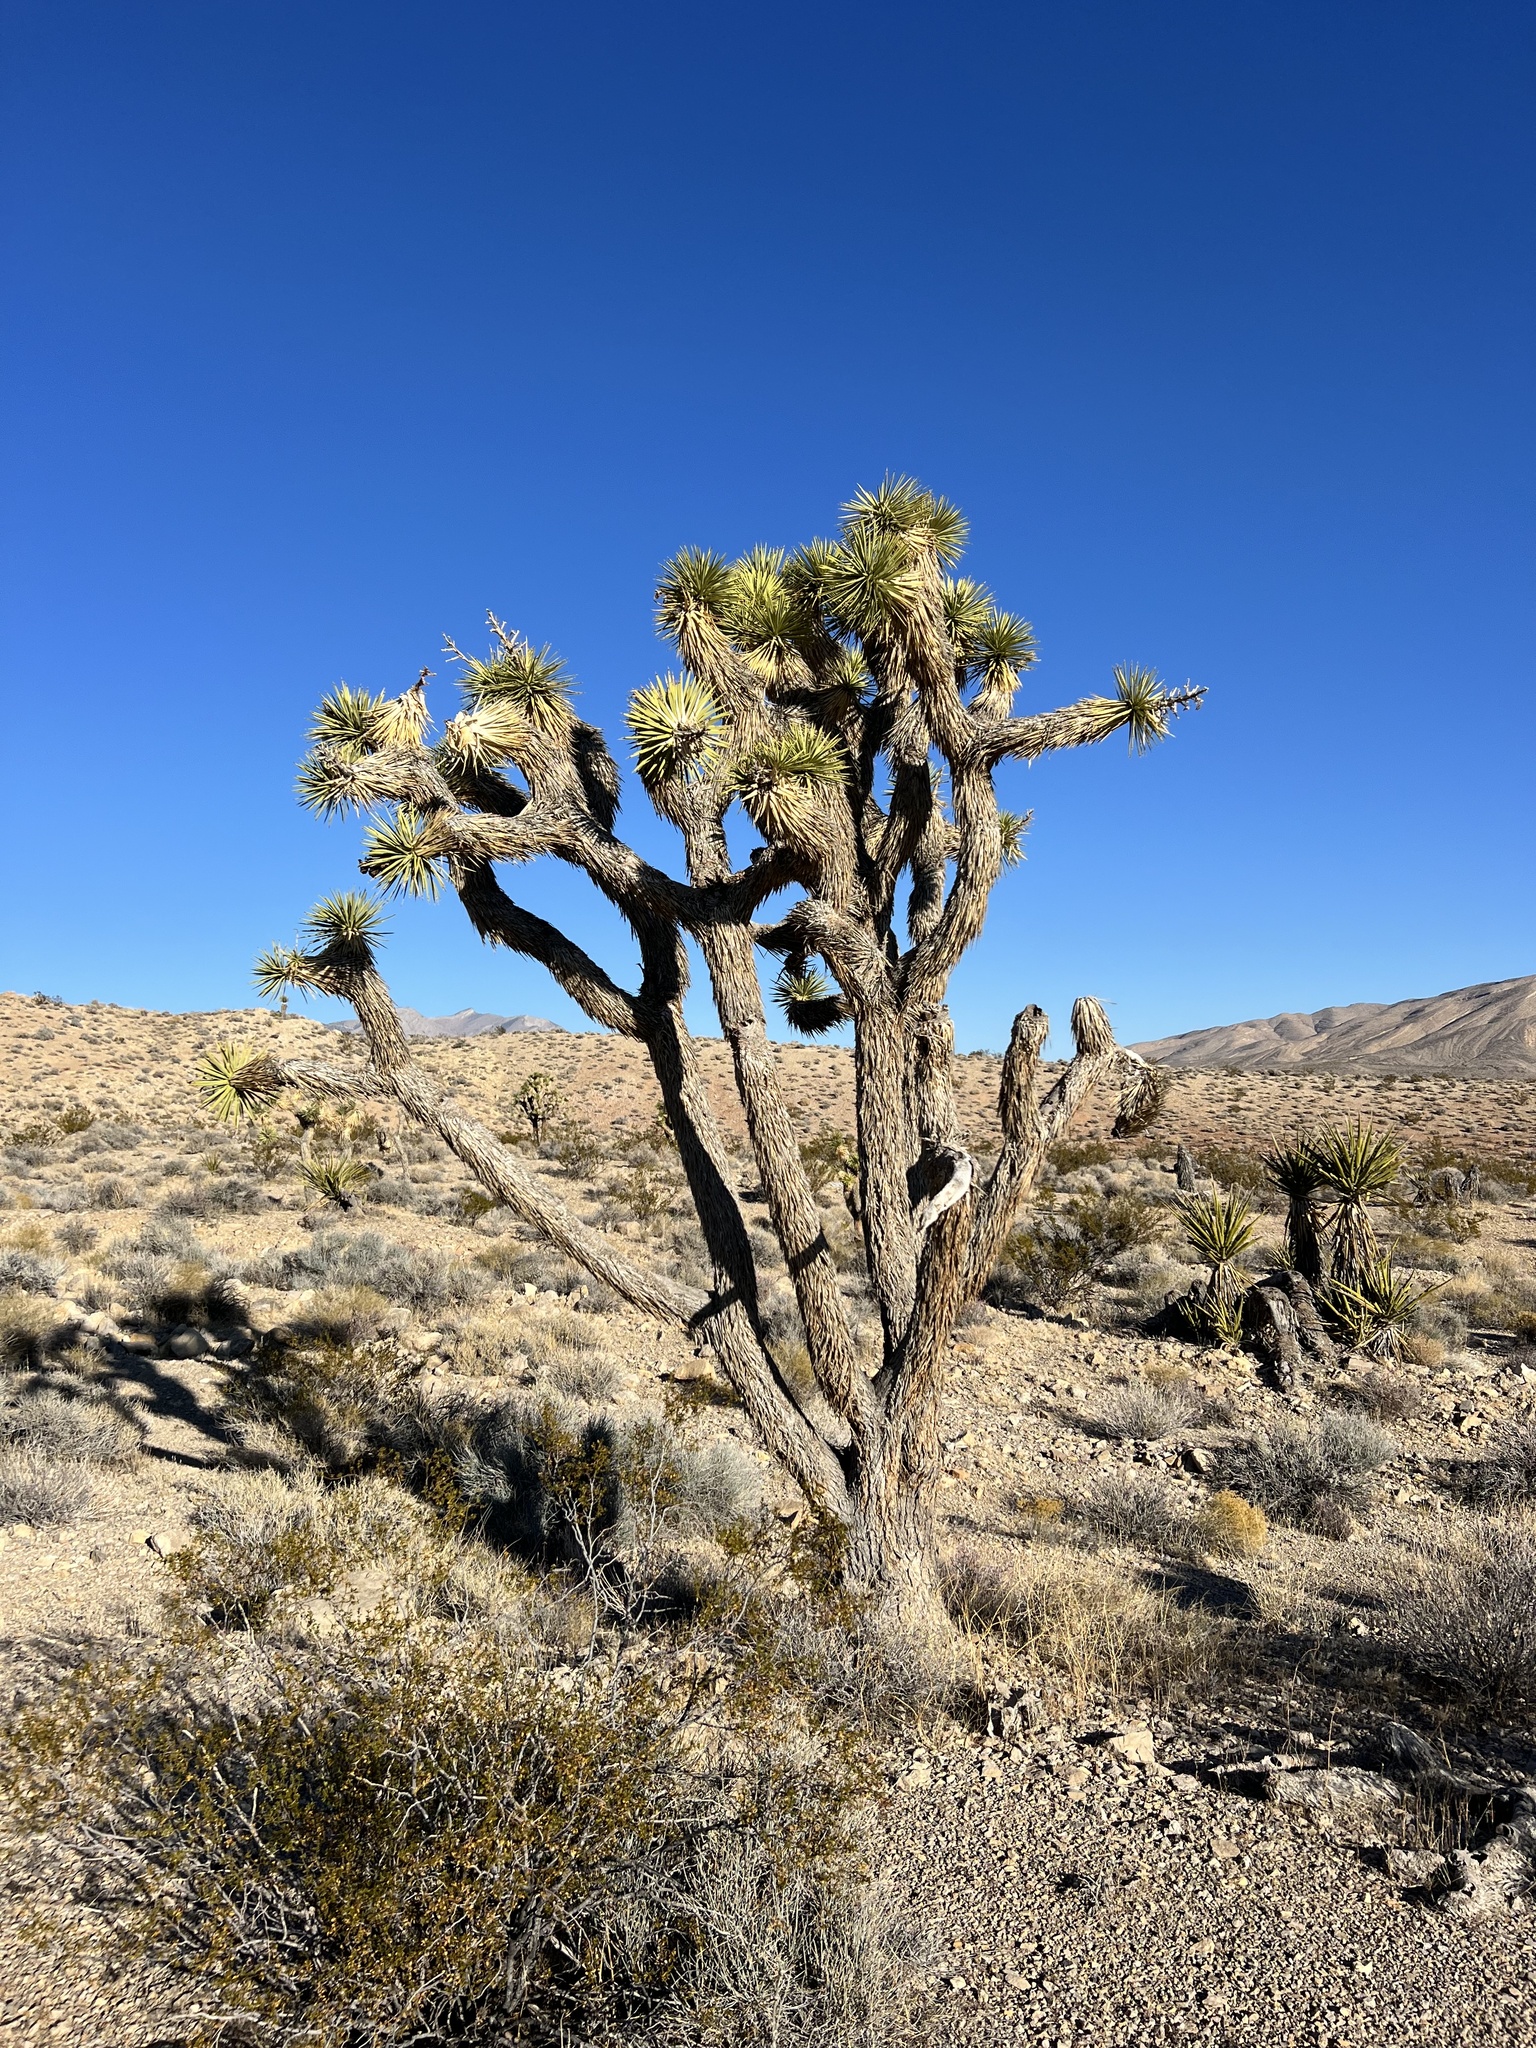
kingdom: Plantae
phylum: Tracheophyta
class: Liliopsida
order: Asparagales
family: Asparagaceae
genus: Yucca
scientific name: Yucca brevifolia
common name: Joshua tree
